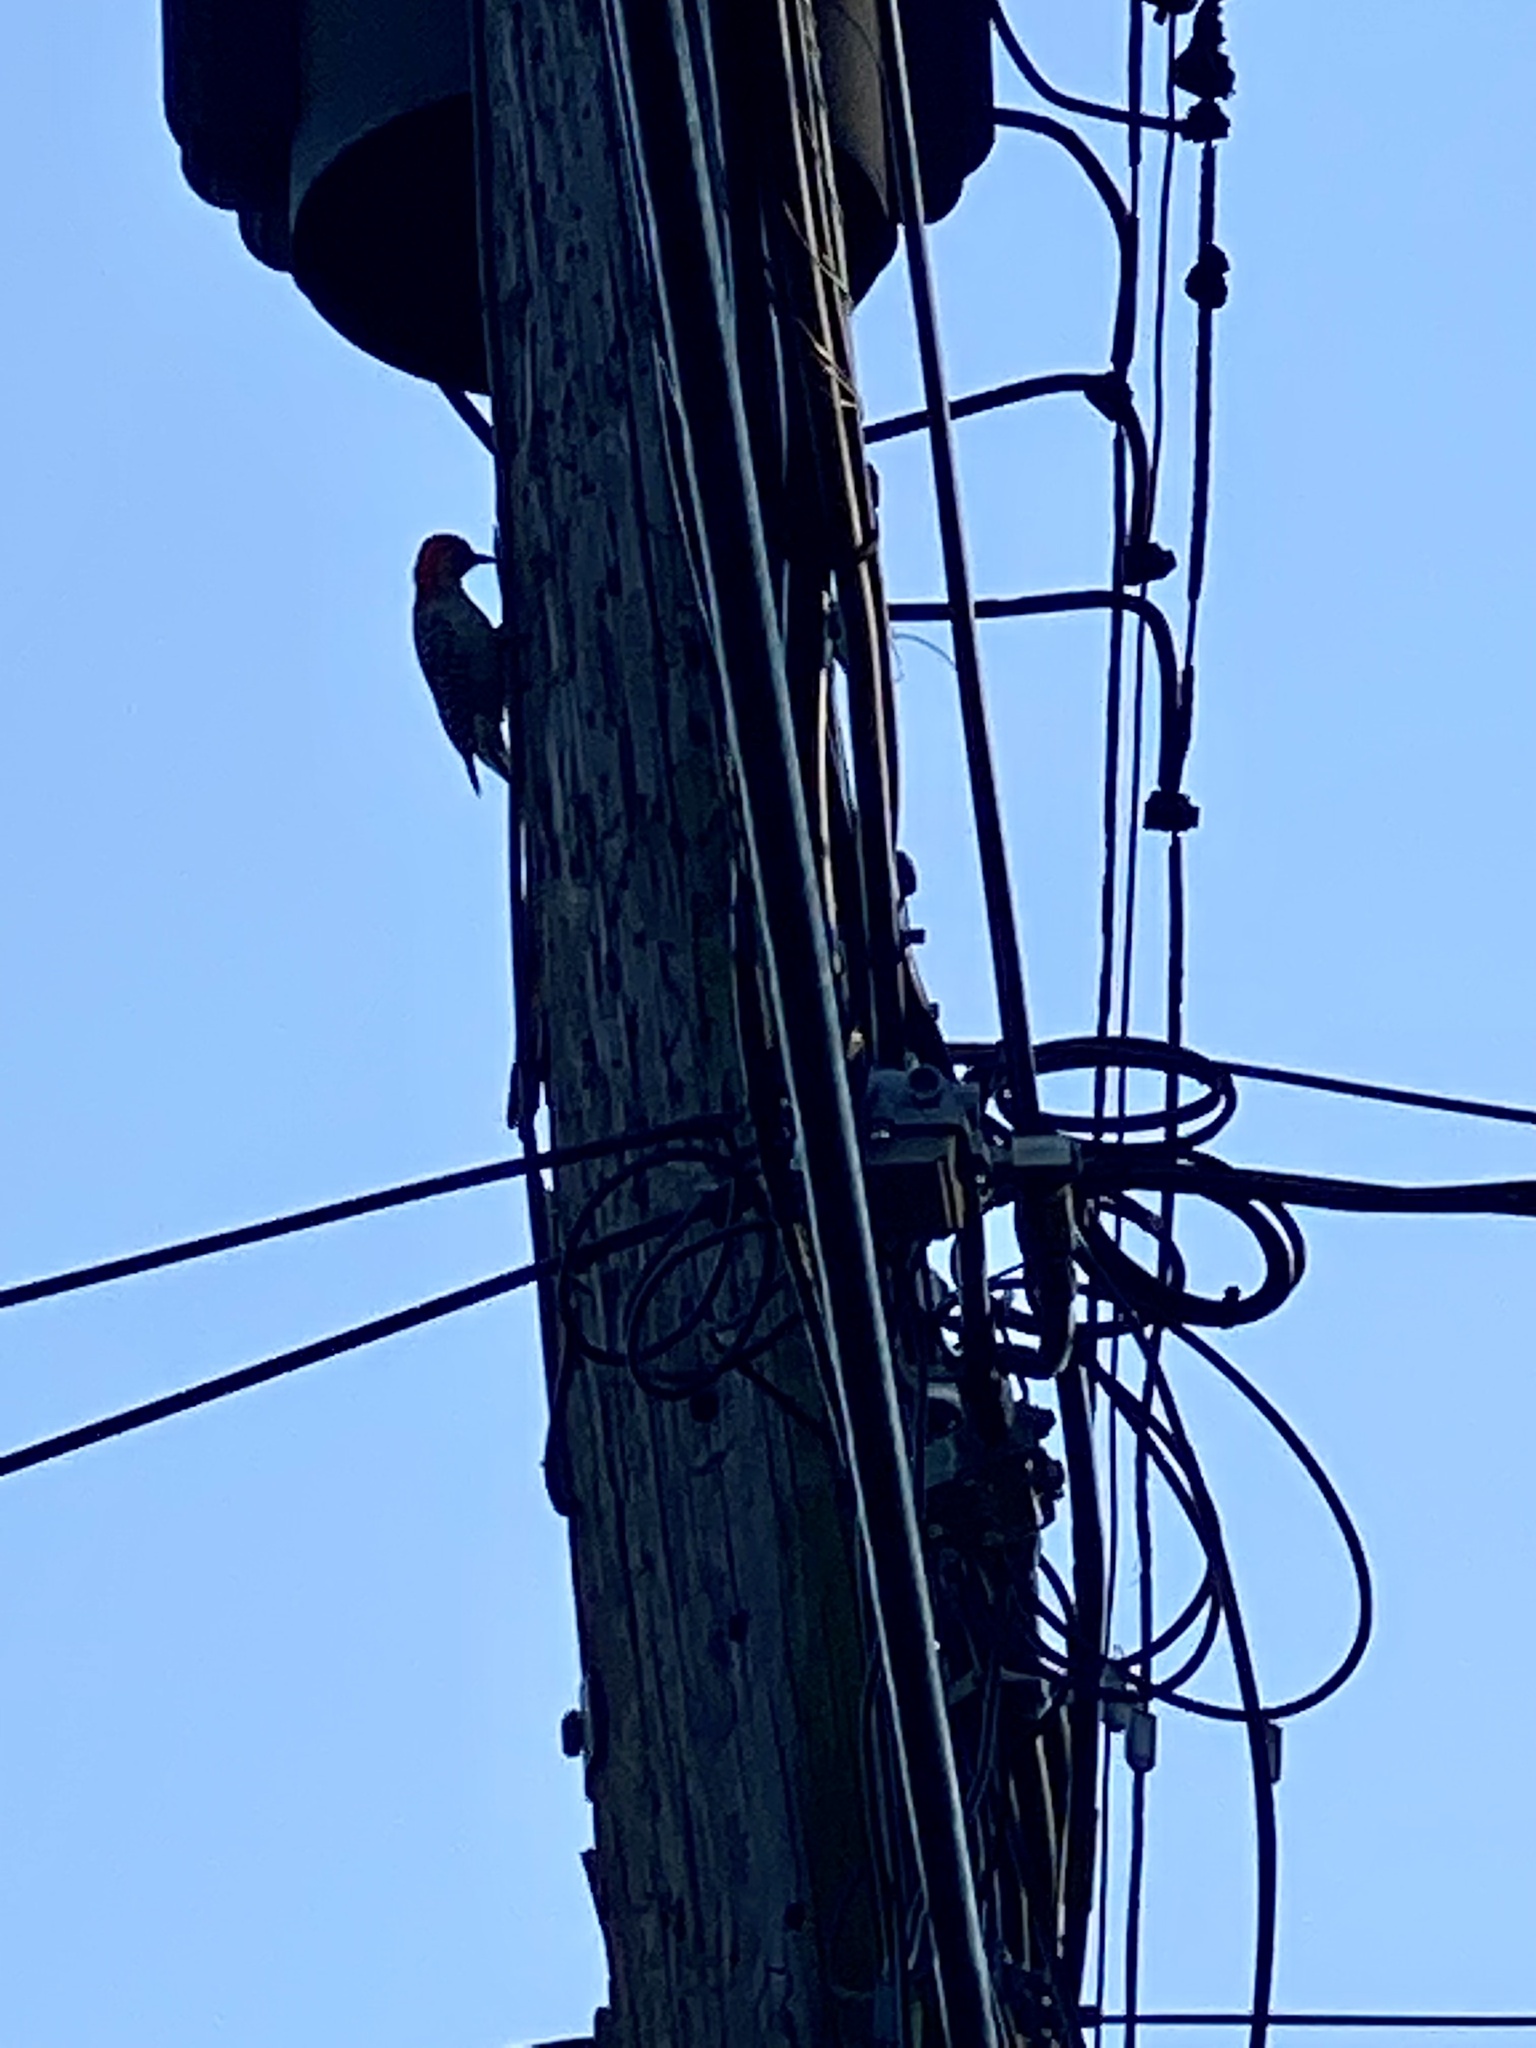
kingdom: Animalia
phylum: Chordata
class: Aves
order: Piciformes
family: Picidae
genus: Melanerpes
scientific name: Melanerpes carolinus
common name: Red-bellied woodpecker
